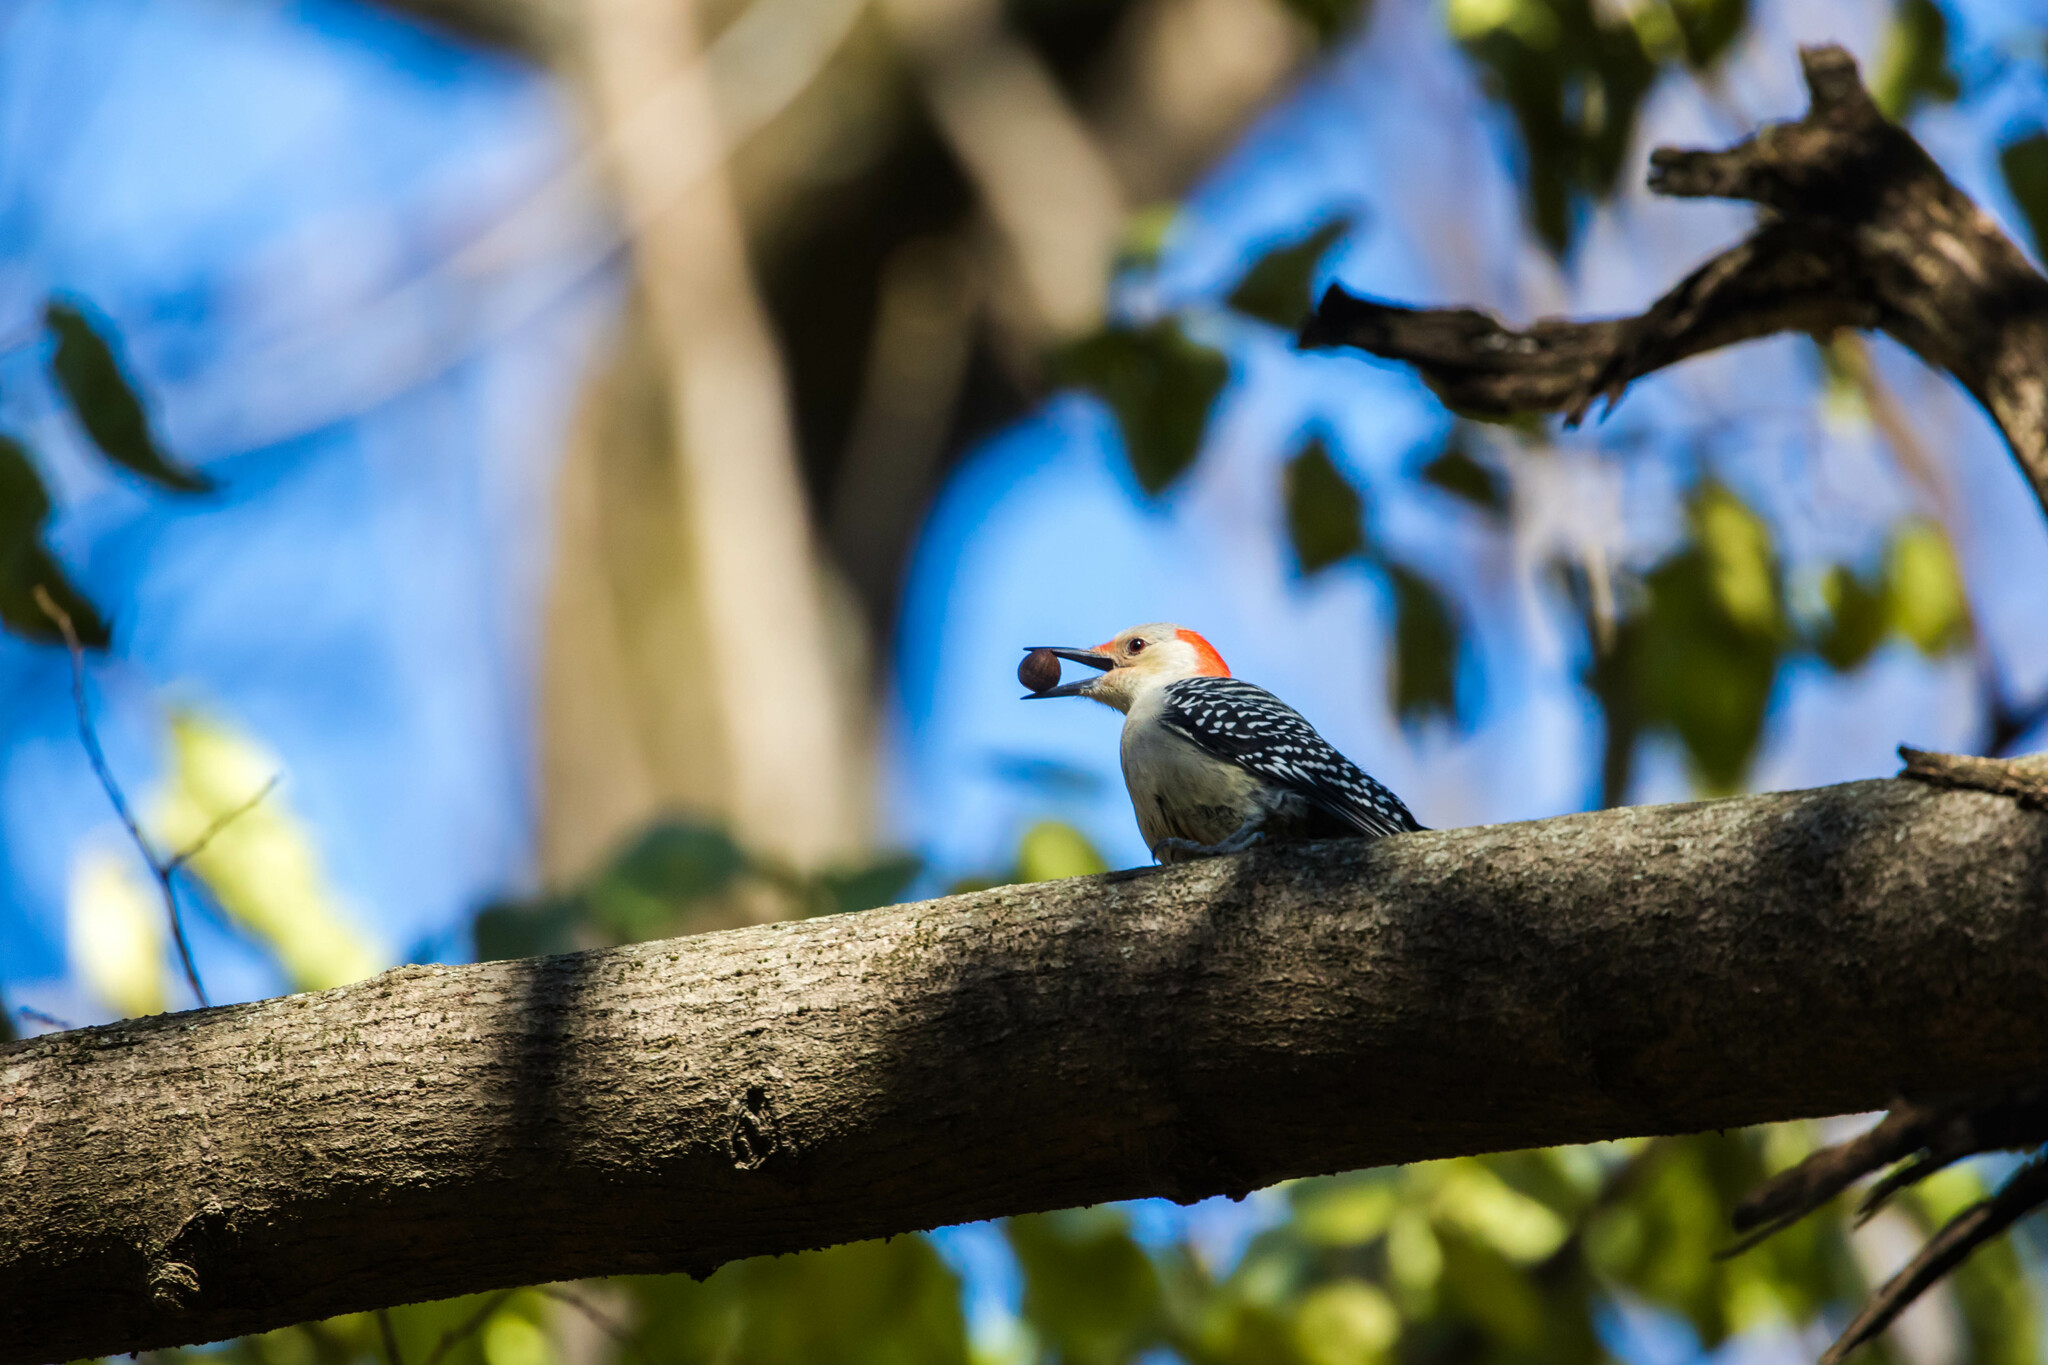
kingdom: Animalia
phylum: Chordata
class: Aves
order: Piciformes
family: Picidae
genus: Melanerpes
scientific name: Melanerpes carolinus
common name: Red-bellied woodpecker
